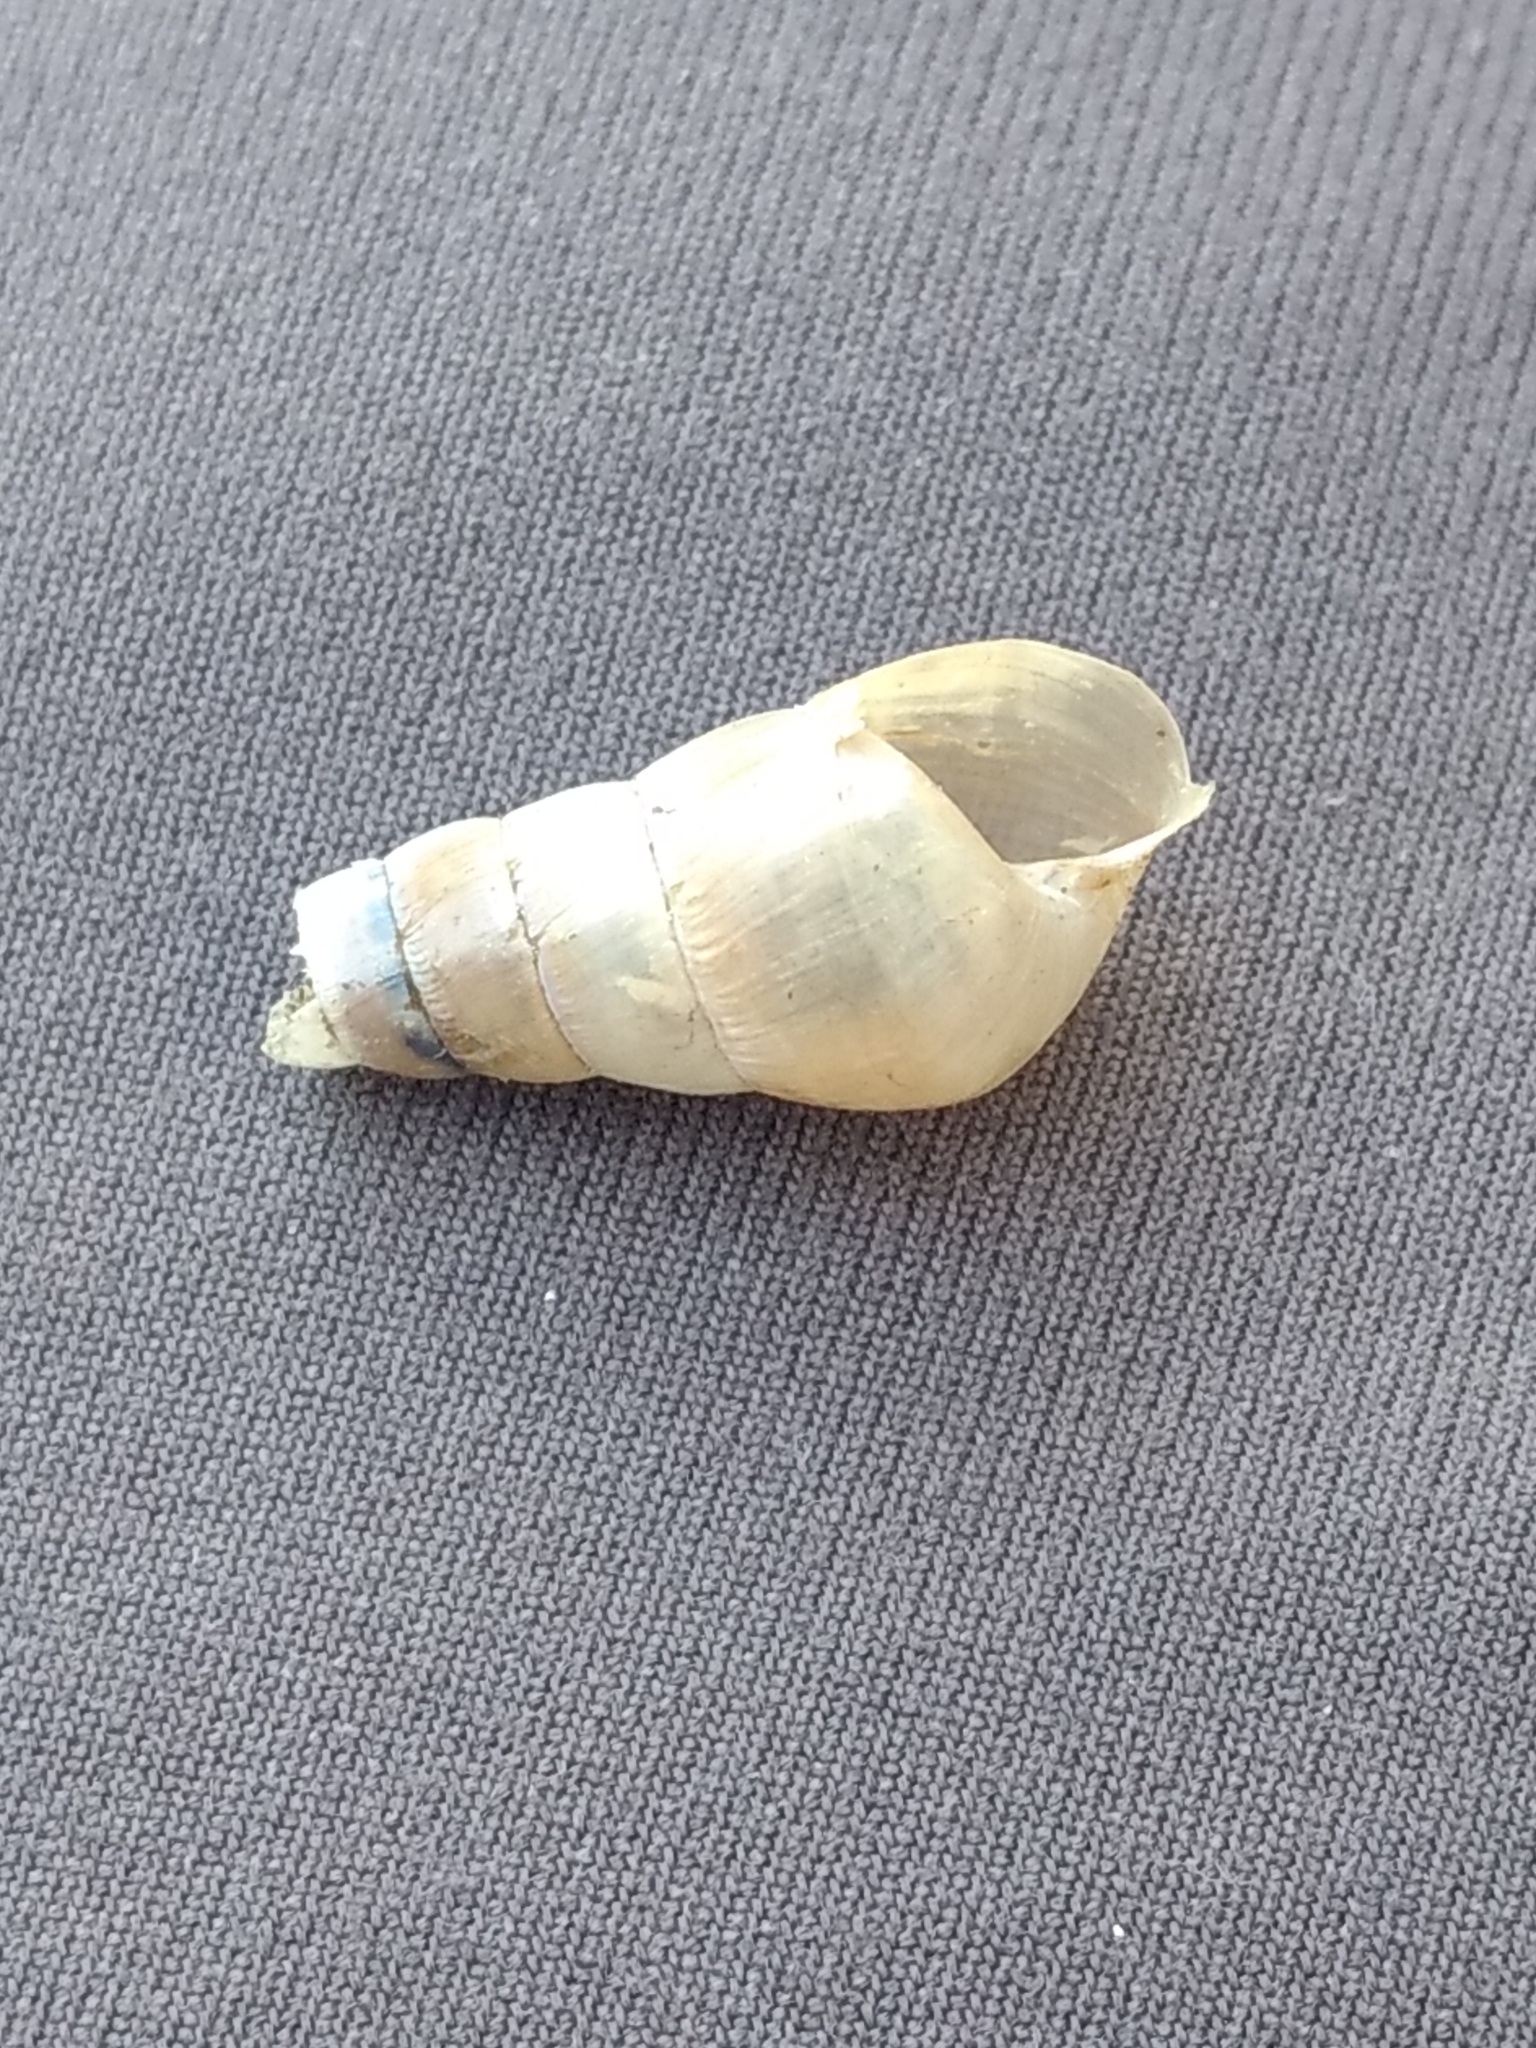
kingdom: Animalia
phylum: Mollusca
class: Gastropoda
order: Stylommatophora
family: Achatinidae
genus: Rumina
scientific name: Rumina decollata
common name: Decollate snail
